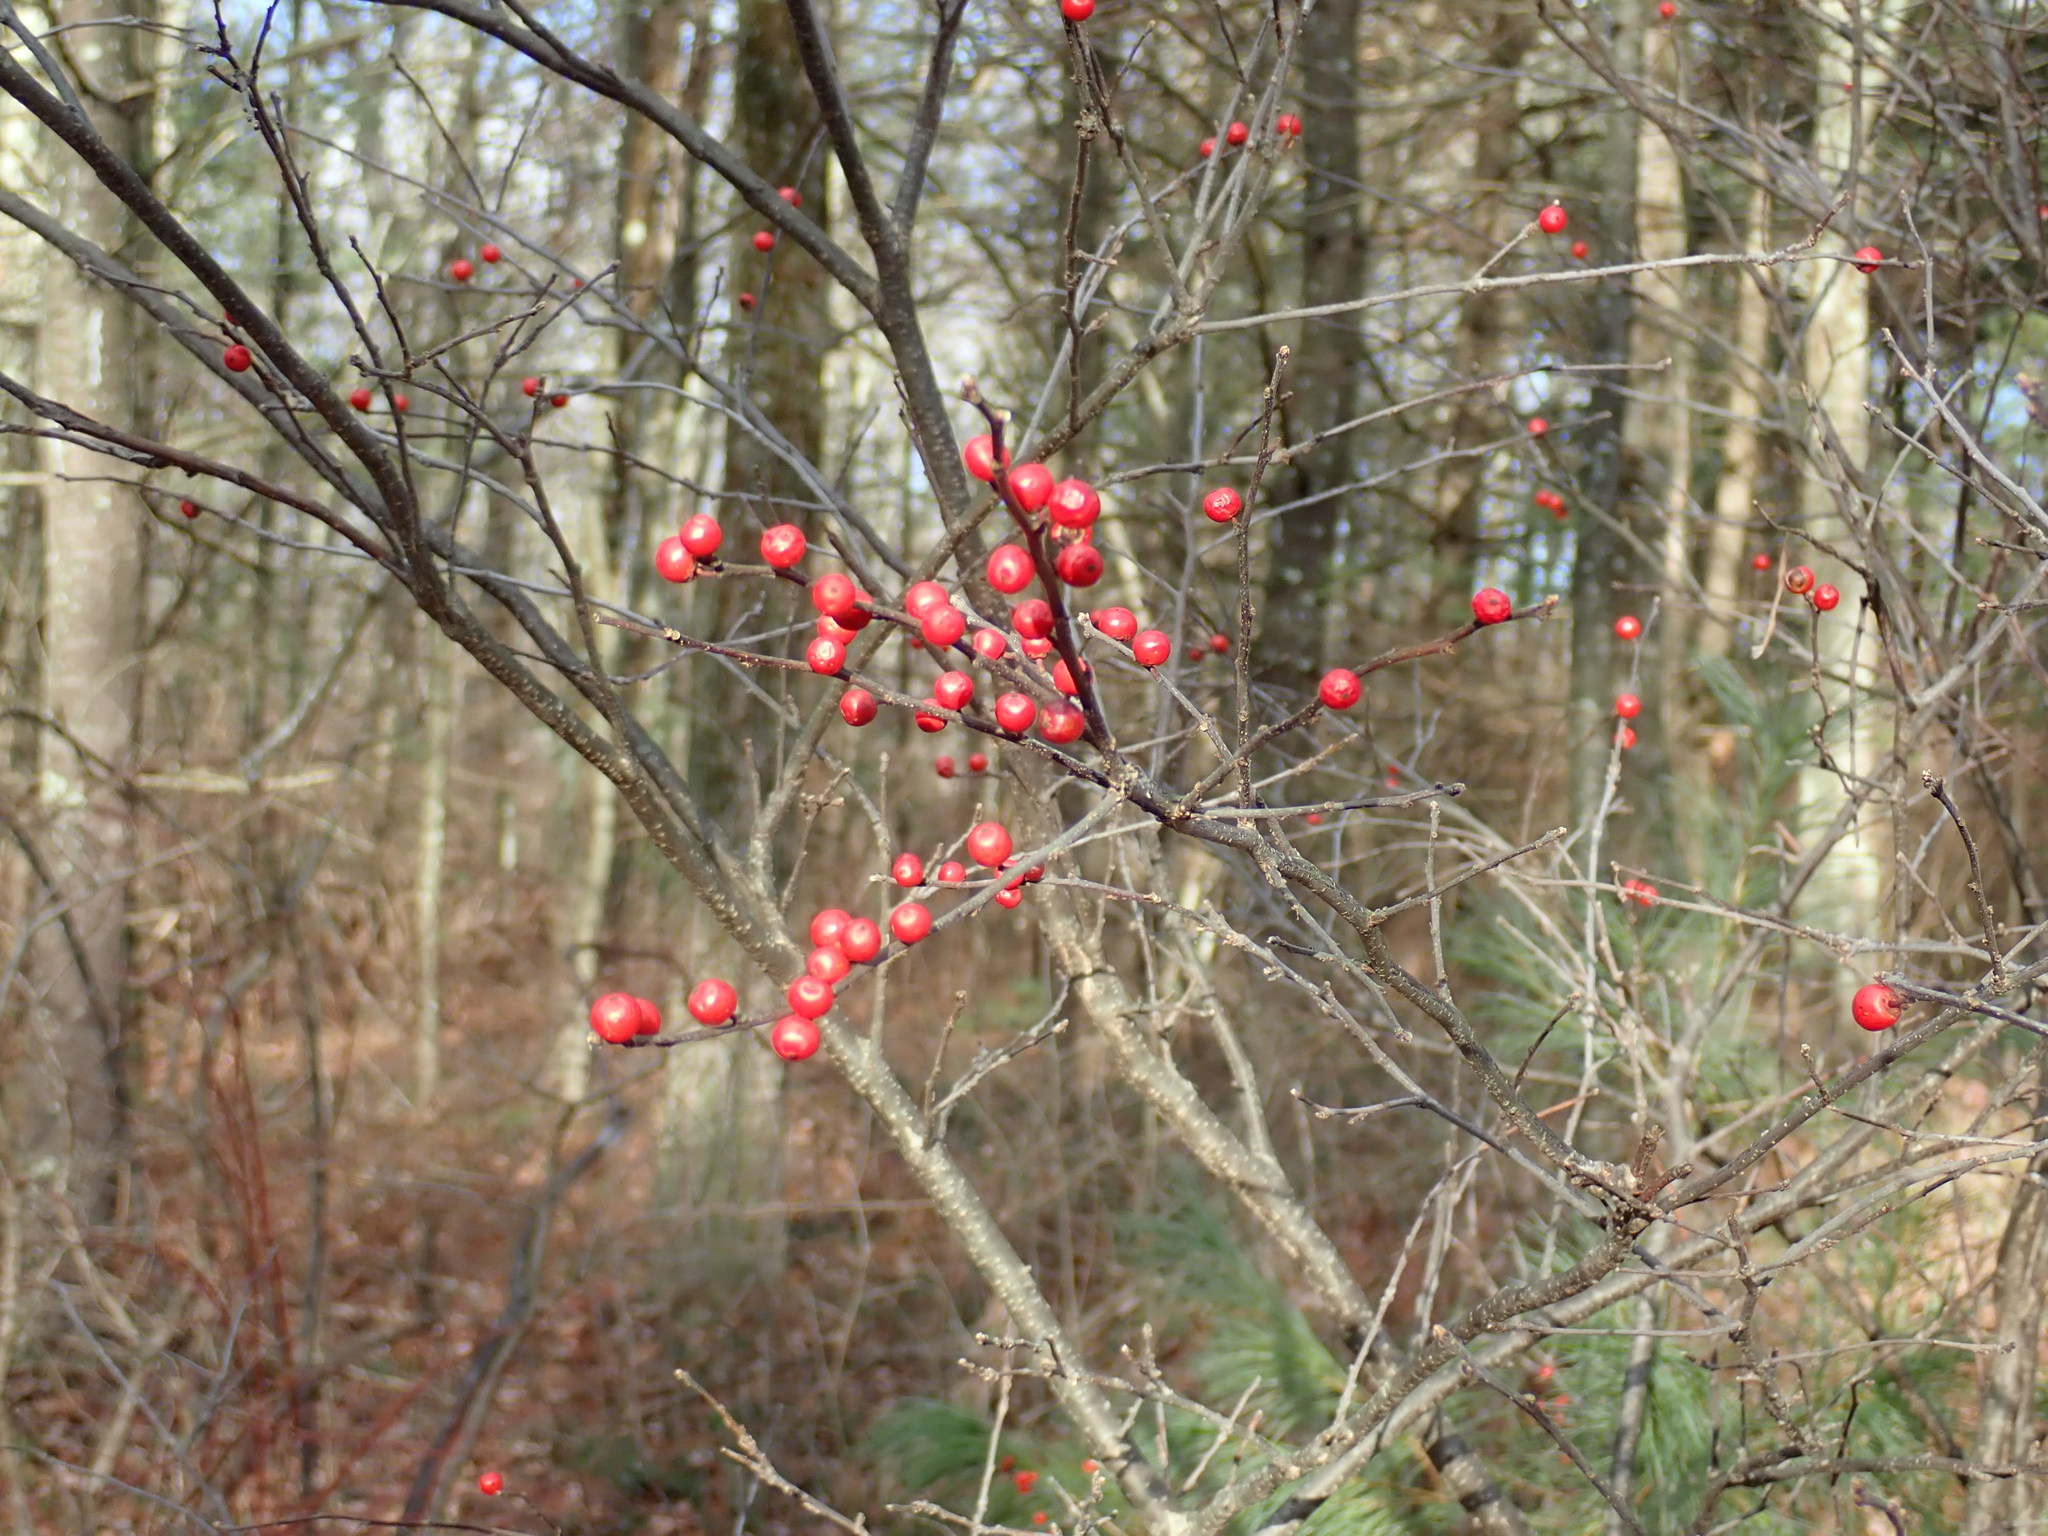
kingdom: Plantae
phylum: Tracheophyta
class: Magnoliopsida
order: Aquifoliales
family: Aquifoliaceae
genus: Ilex
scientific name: Ilex verticillata
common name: Virginia winterberry
